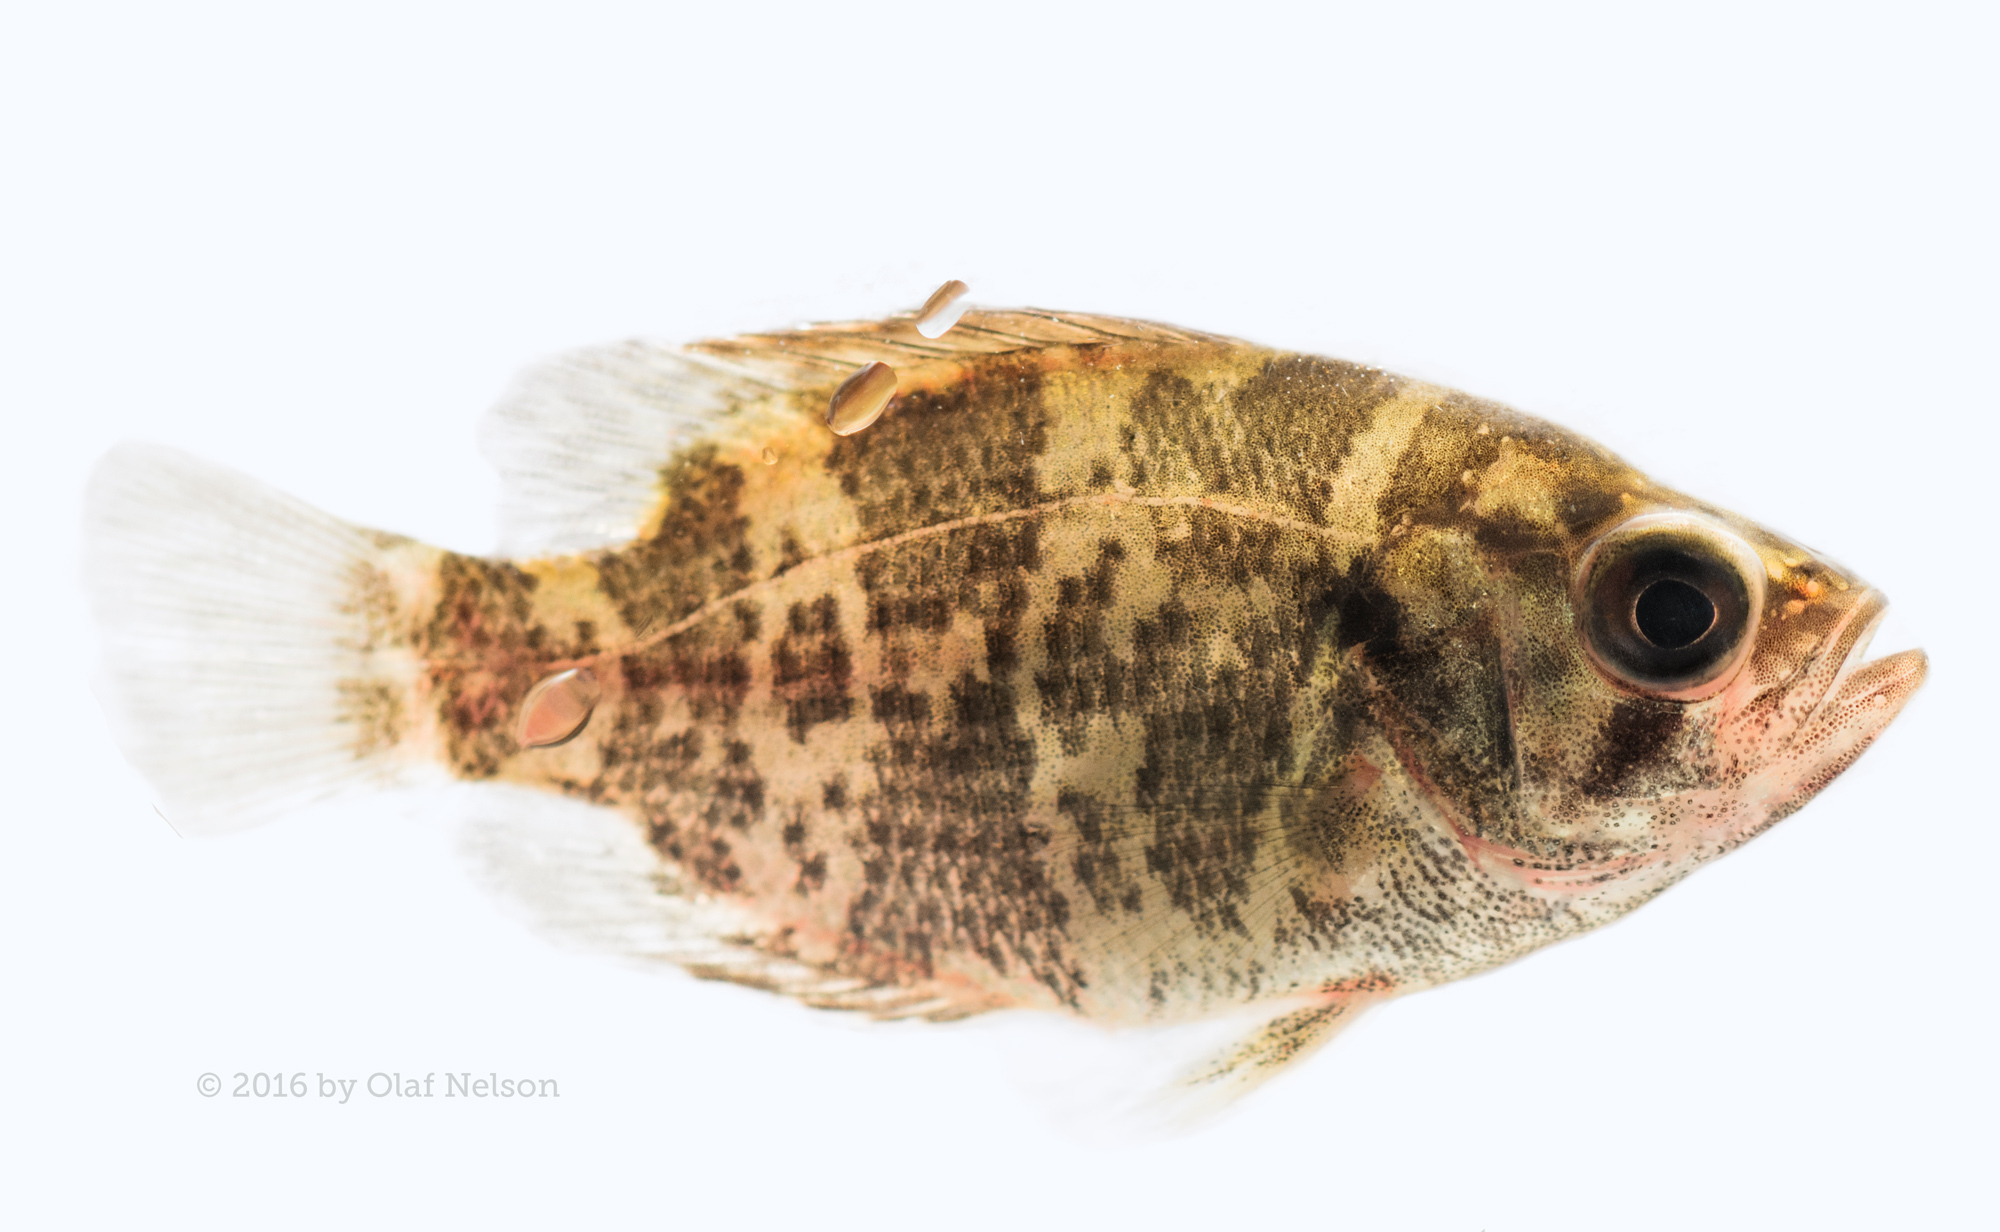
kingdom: Animalia
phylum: Chordata
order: Perciformes
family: Centrarchidae
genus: Ambloplites
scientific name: Ambloplites rupestris
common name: Rock bass
